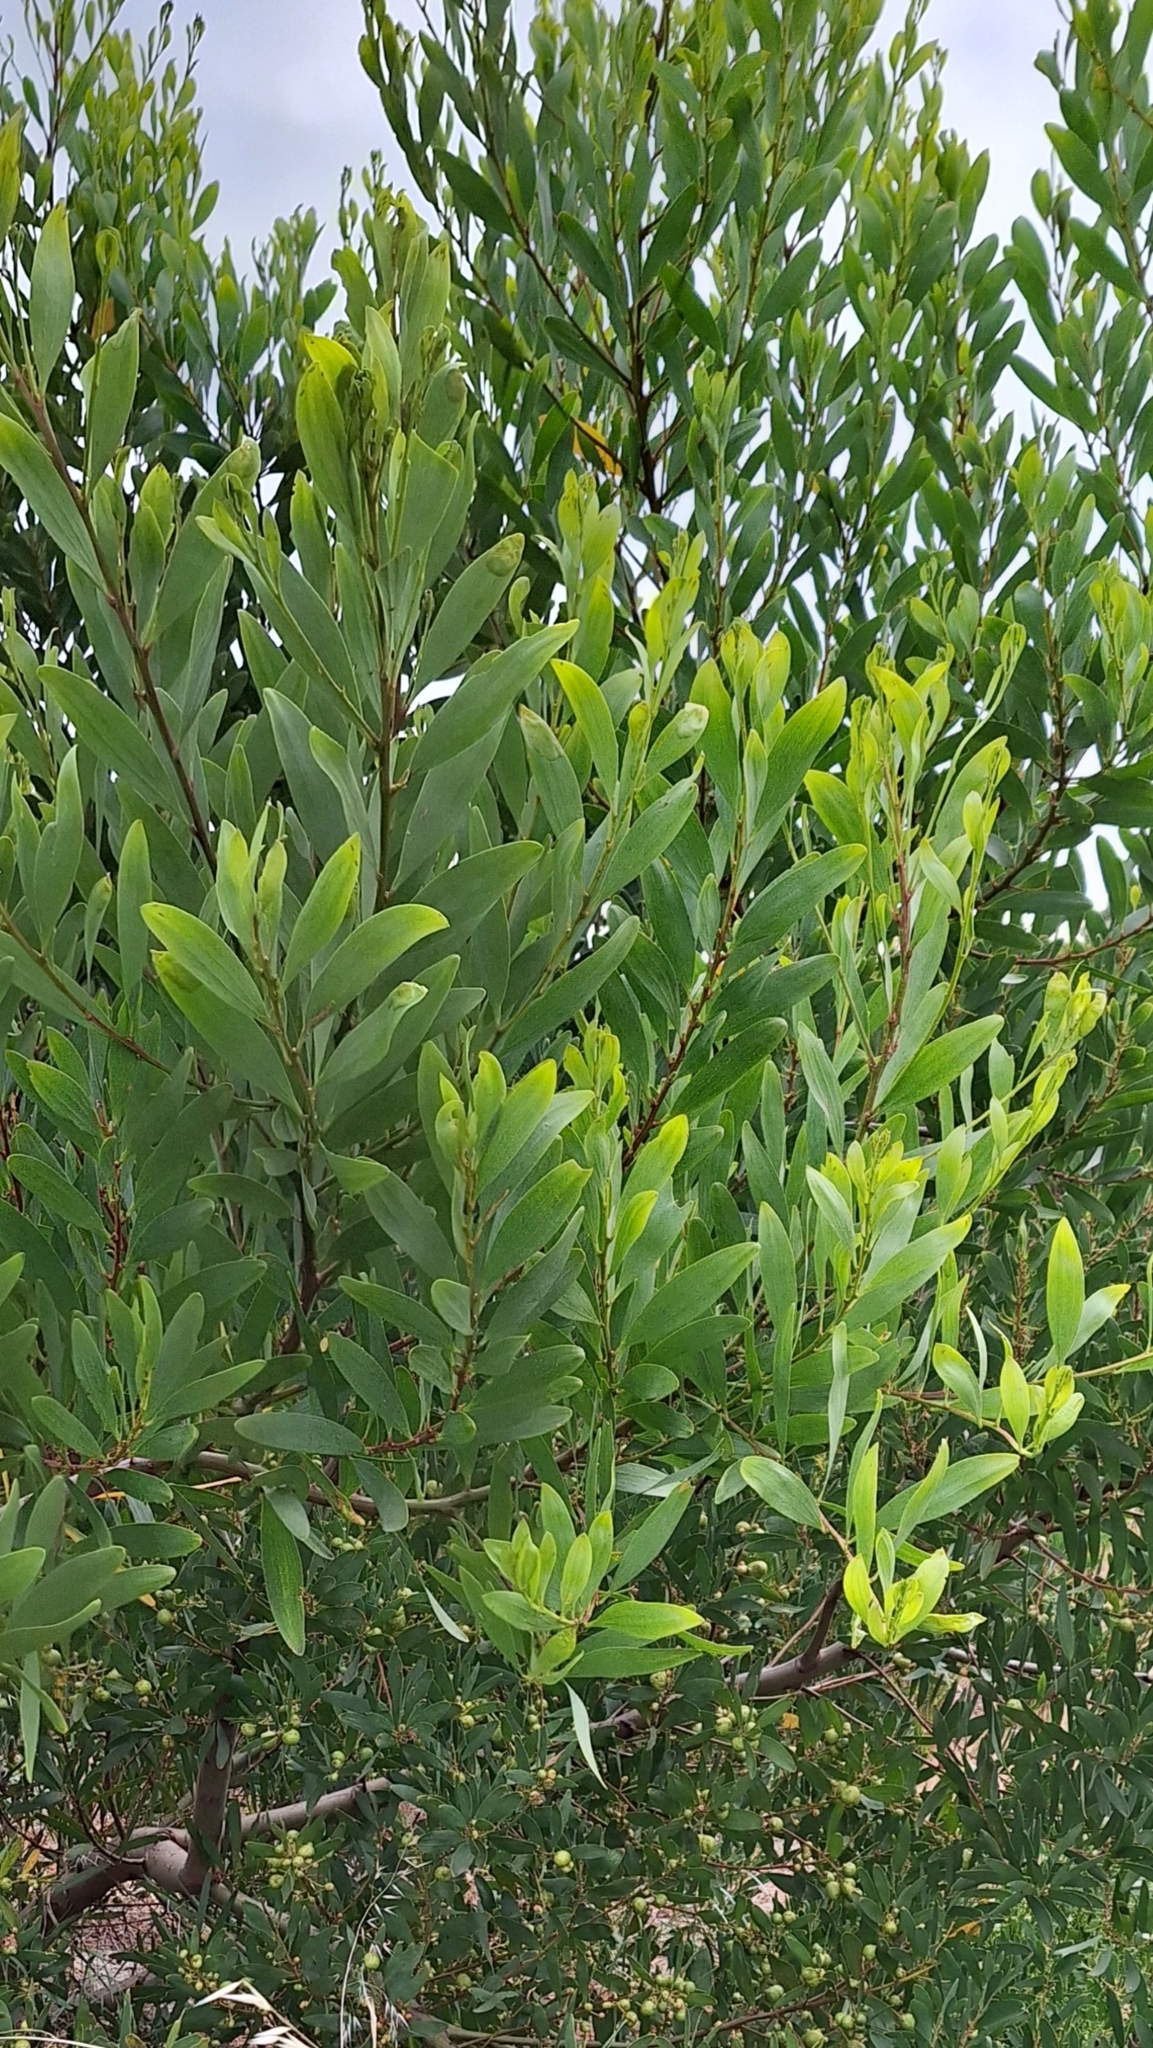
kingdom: Plantae
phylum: Tracheophyta
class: Magnoliopsida
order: Fabales
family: Fabaceae
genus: Acacia
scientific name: Acacia longifolia
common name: Sydney golden wattle
